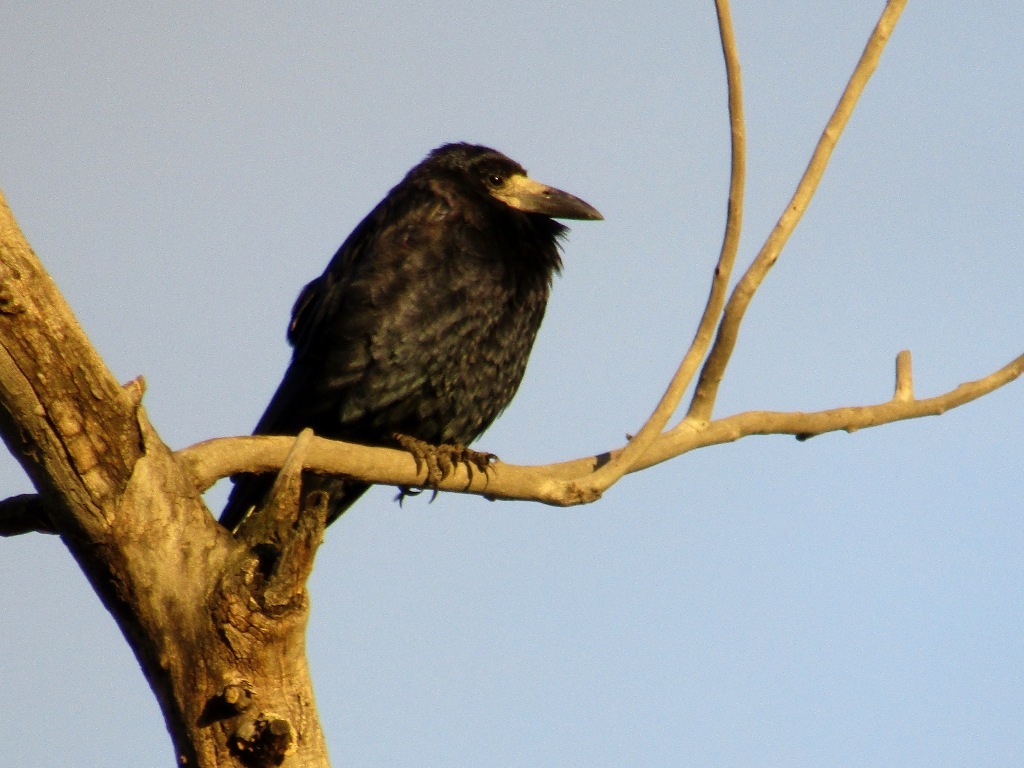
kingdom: Animalia
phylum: Chordata
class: Aves
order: Passeriformes
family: Corvidae
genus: Corvus
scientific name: Corvus frugilegus
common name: Rook
